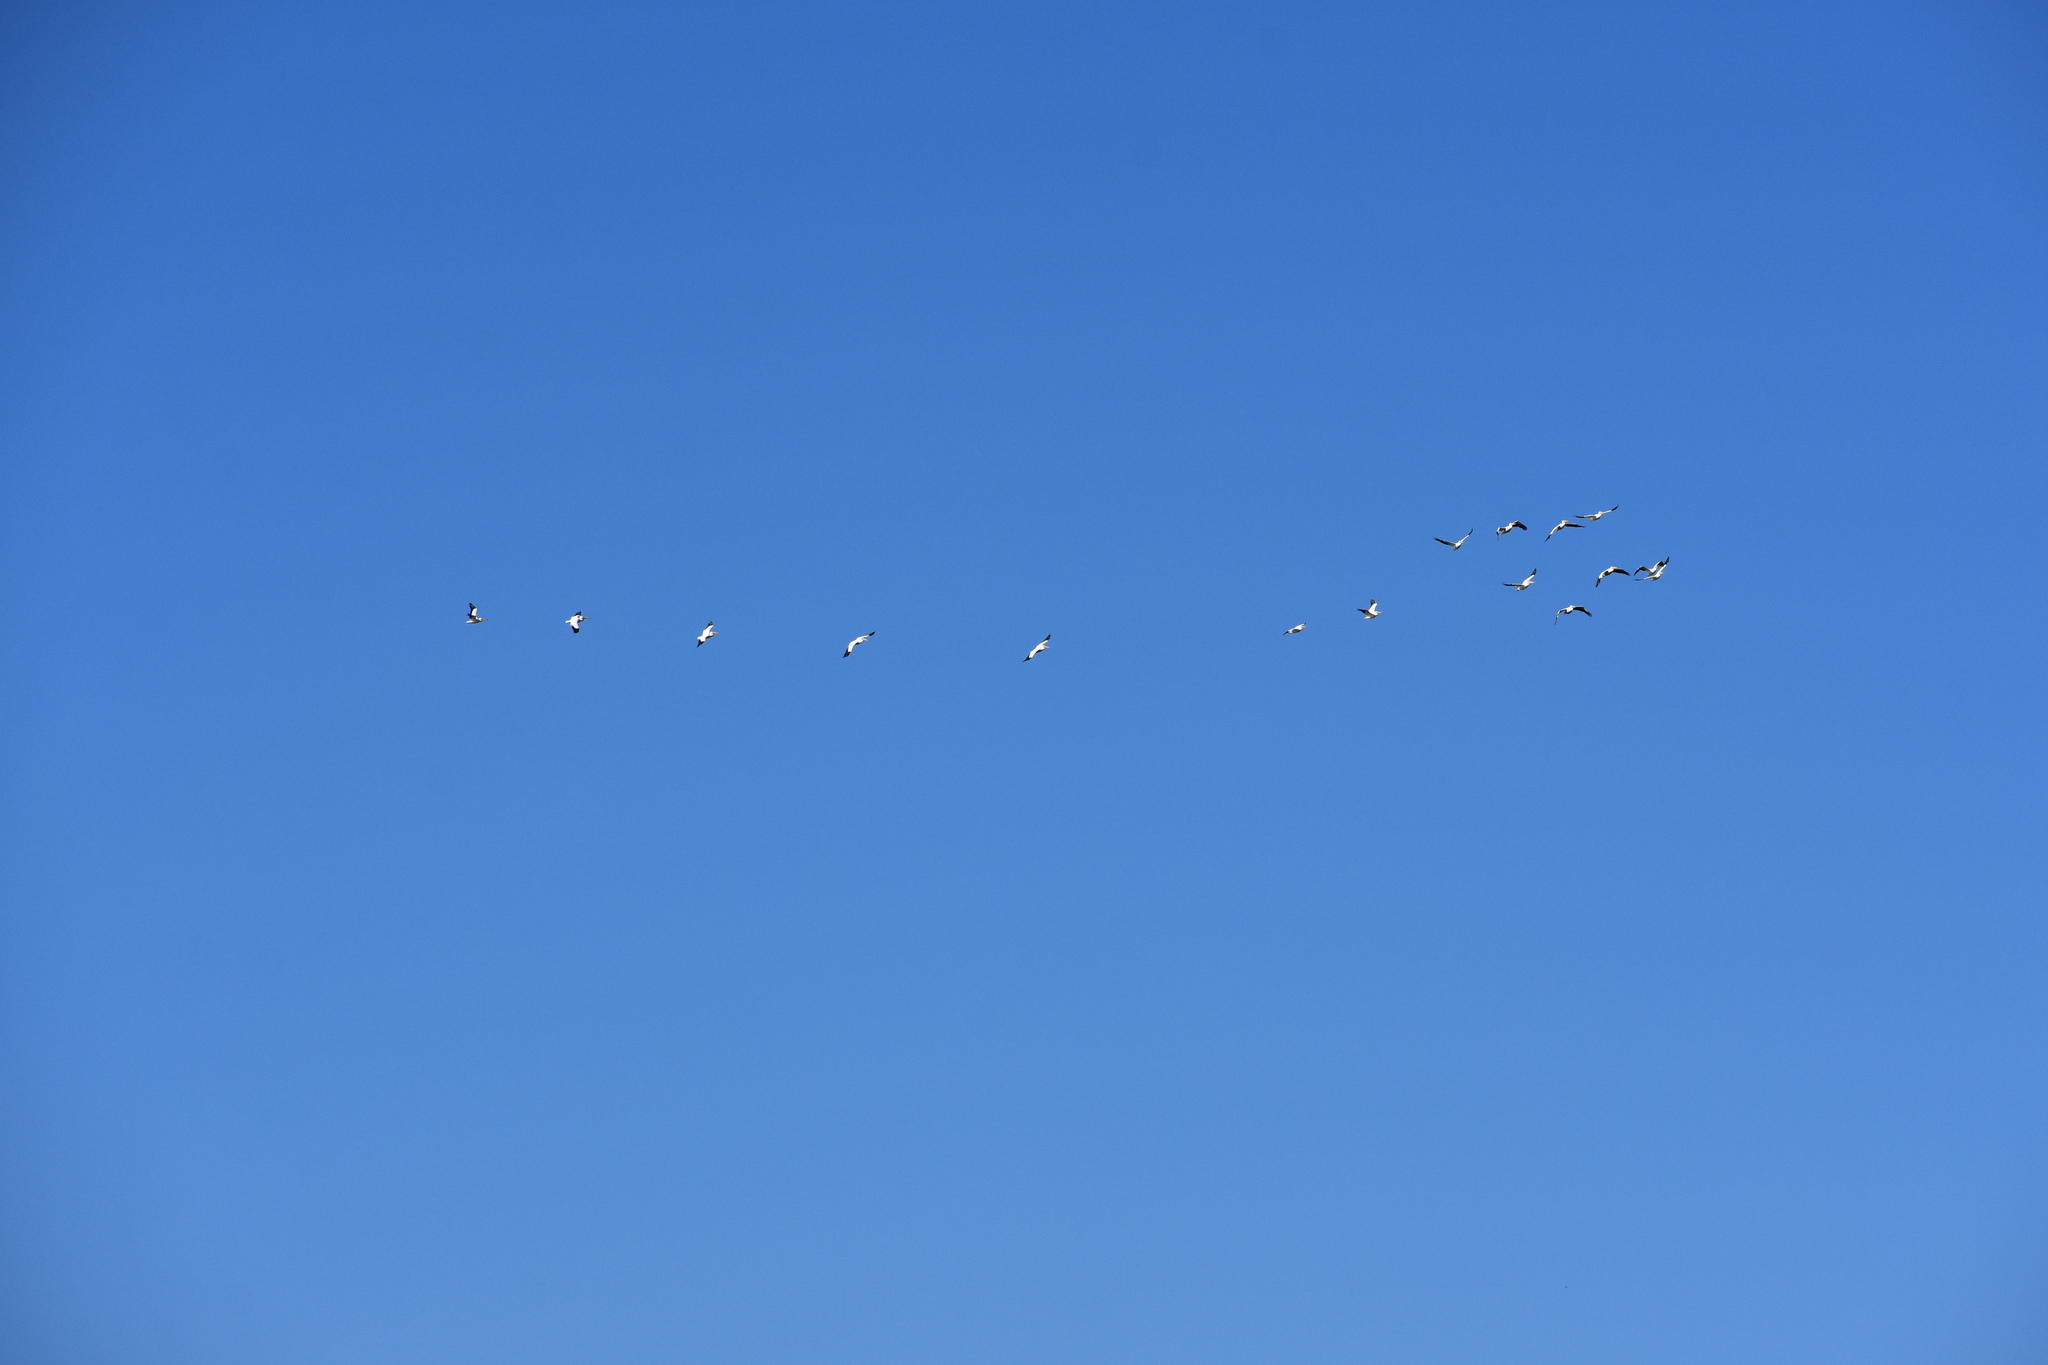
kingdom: Animalia
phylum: Chordata
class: Aves
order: Pelecaniformes
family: Pelecanidae
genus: Pelecanus
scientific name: Pelecanus erythrorhynchos
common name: American white pelican
